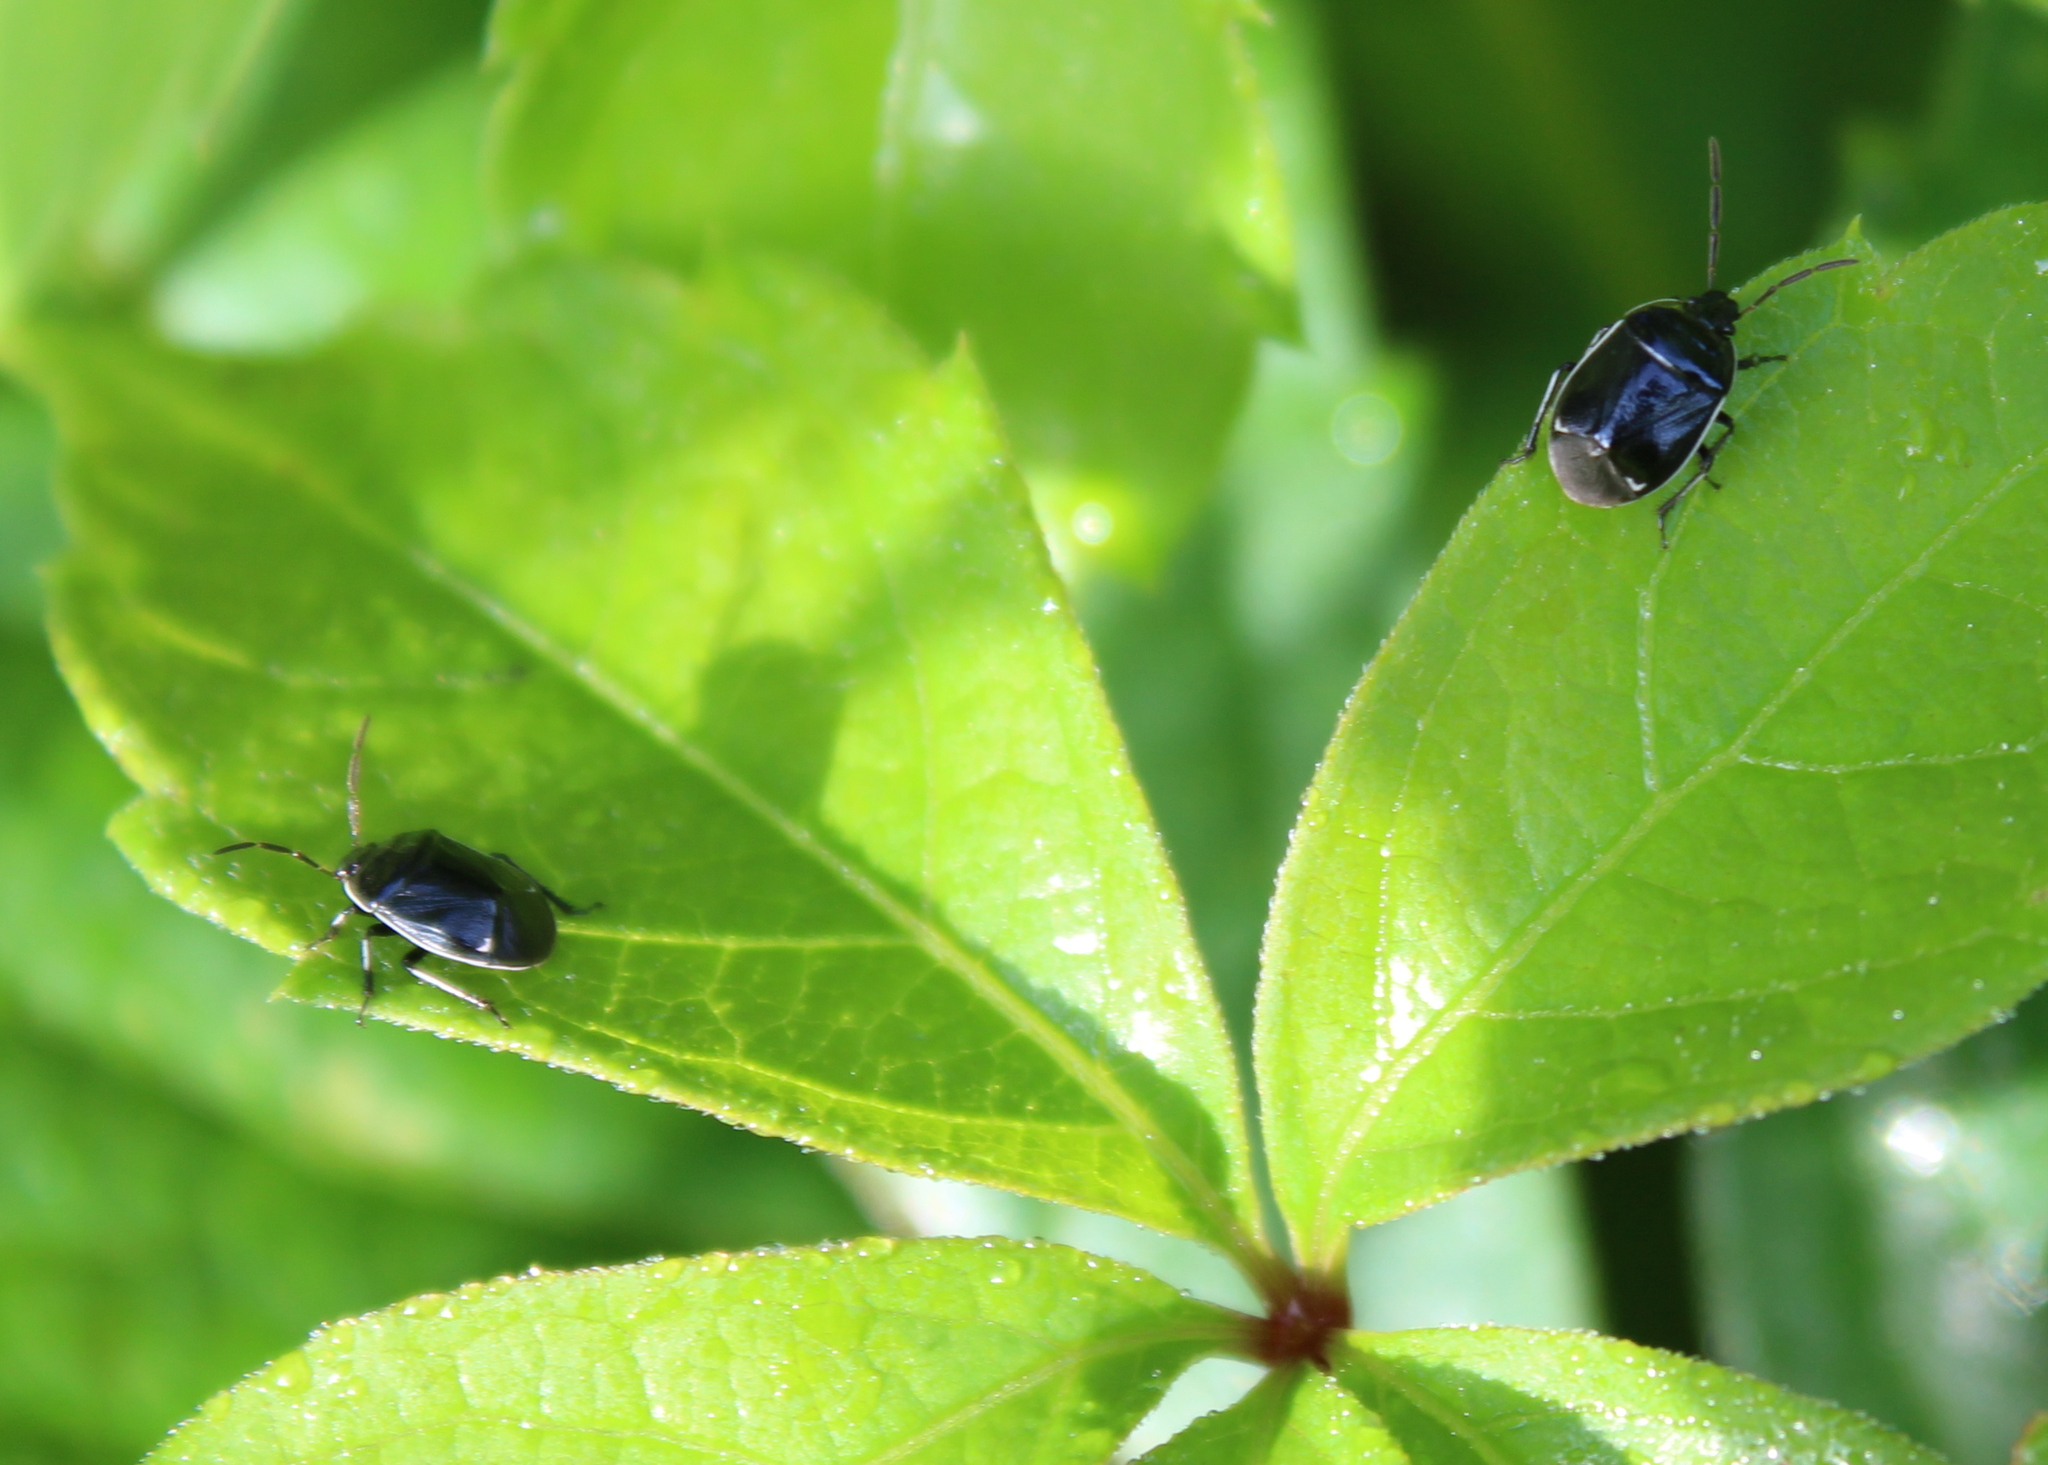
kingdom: Animalia
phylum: Arthropoda
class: Insecta
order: Hemiptera
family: Cydnidae
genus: Sehirus
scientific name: Sehirus cinctus
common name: White-margined burrower bug
